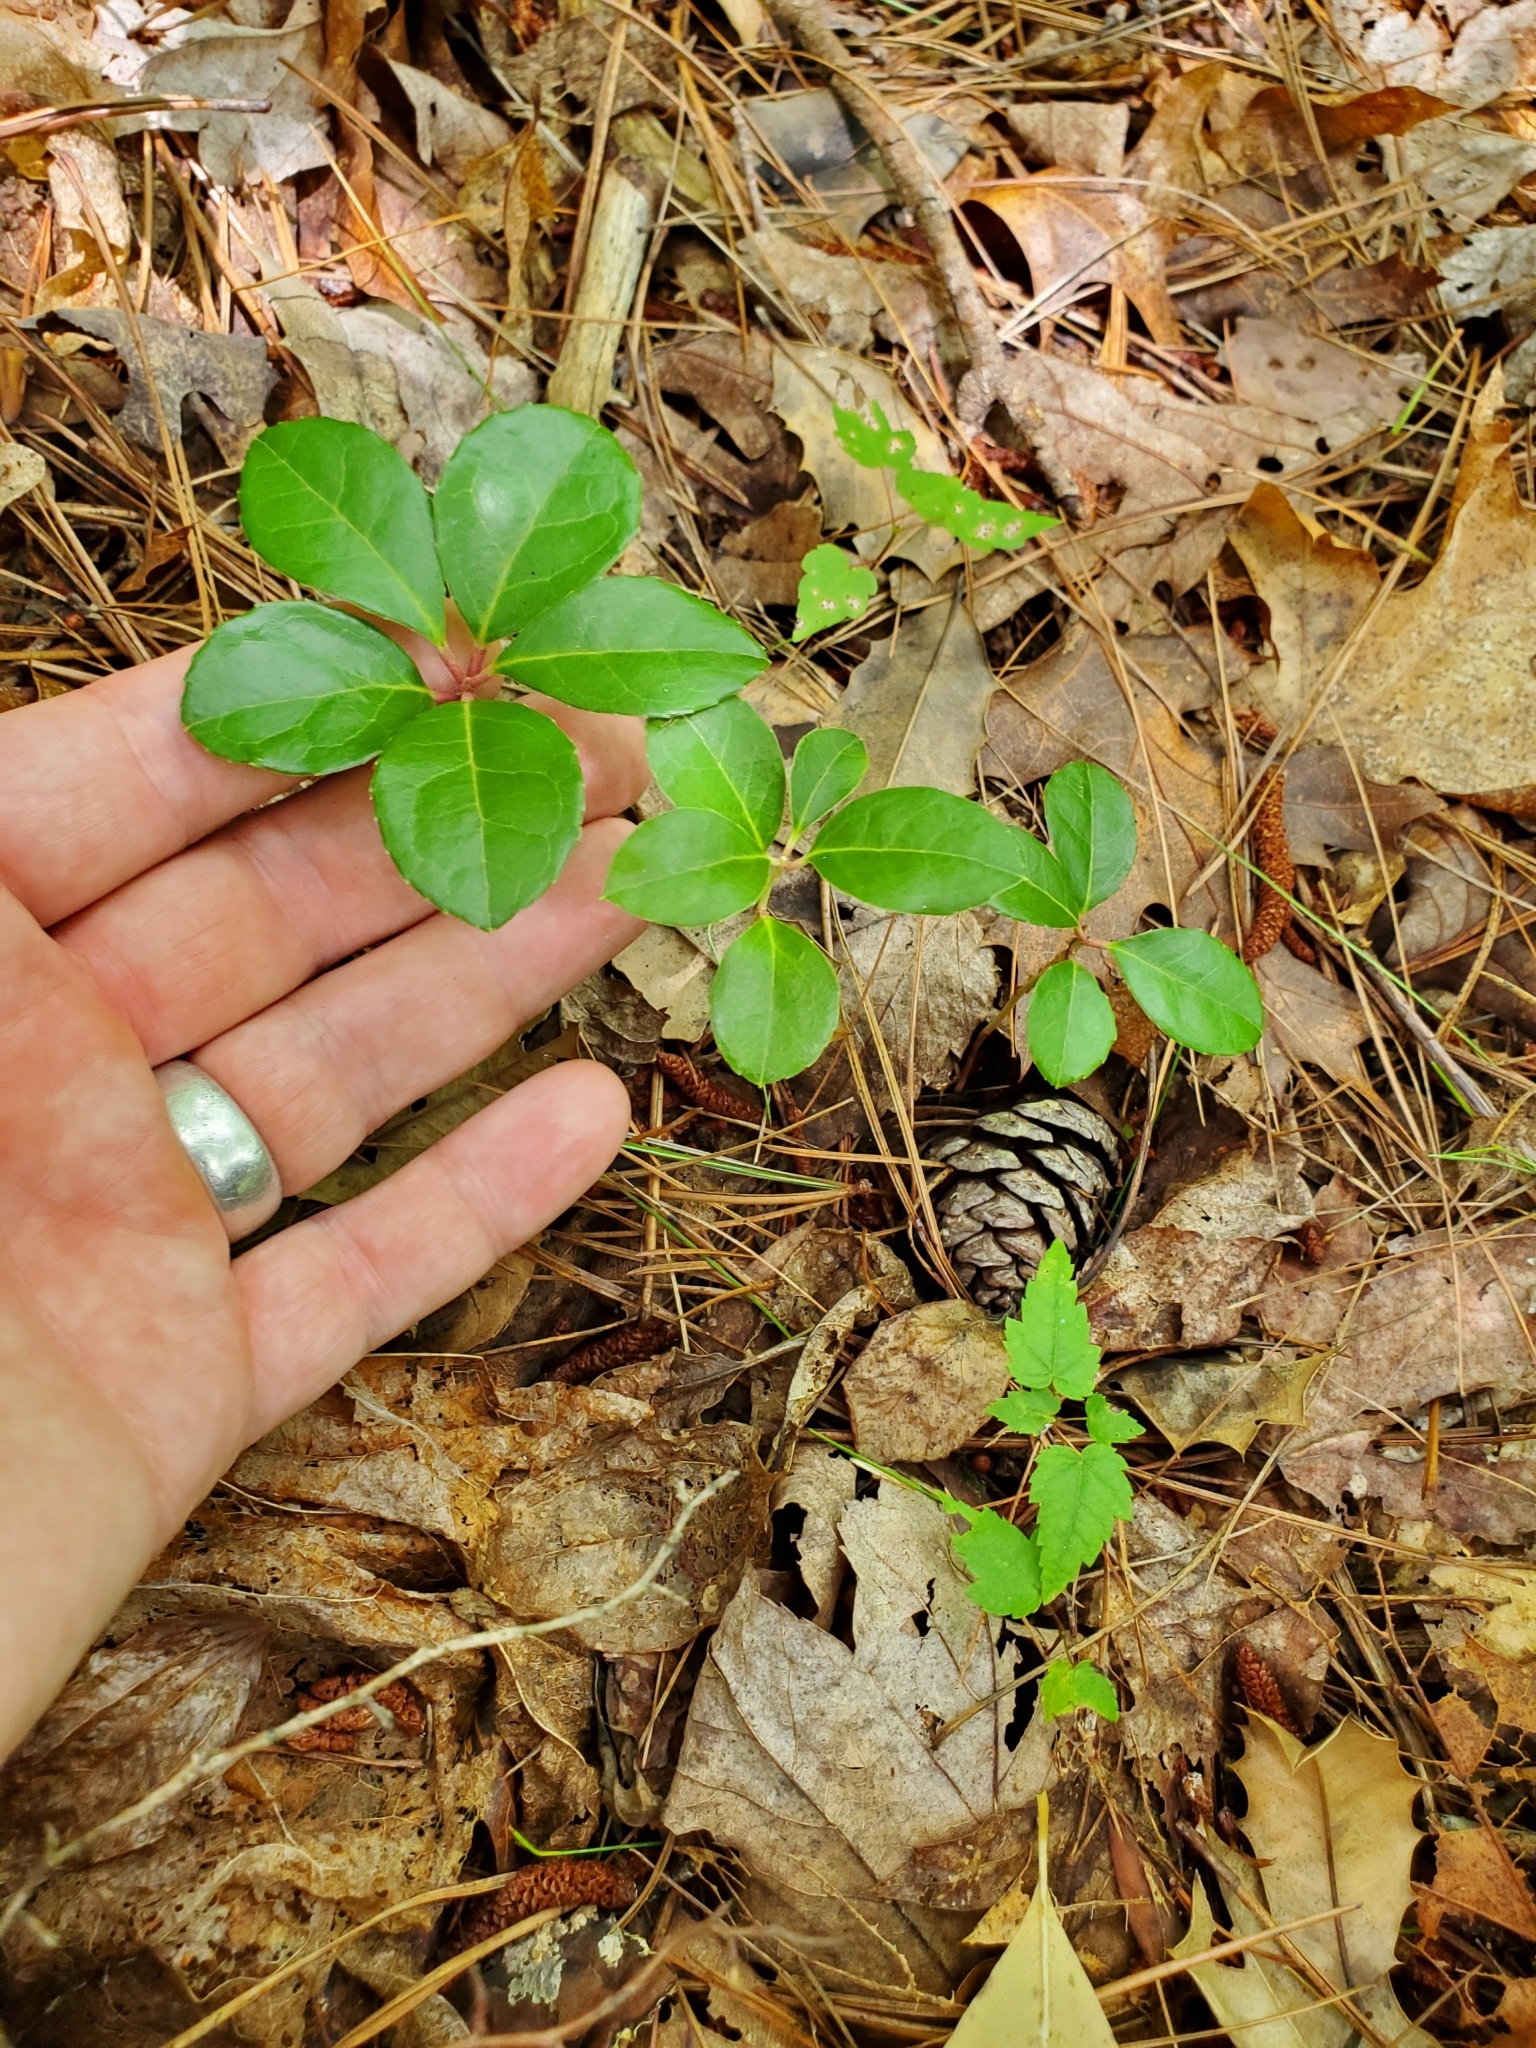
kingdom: Plantae
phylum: Tracheophyta
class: Magnoliopsida
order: Ericales
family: Ericaceae
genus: Gaultheria
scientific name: Gaultheria procumbens
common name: Checkerberry
